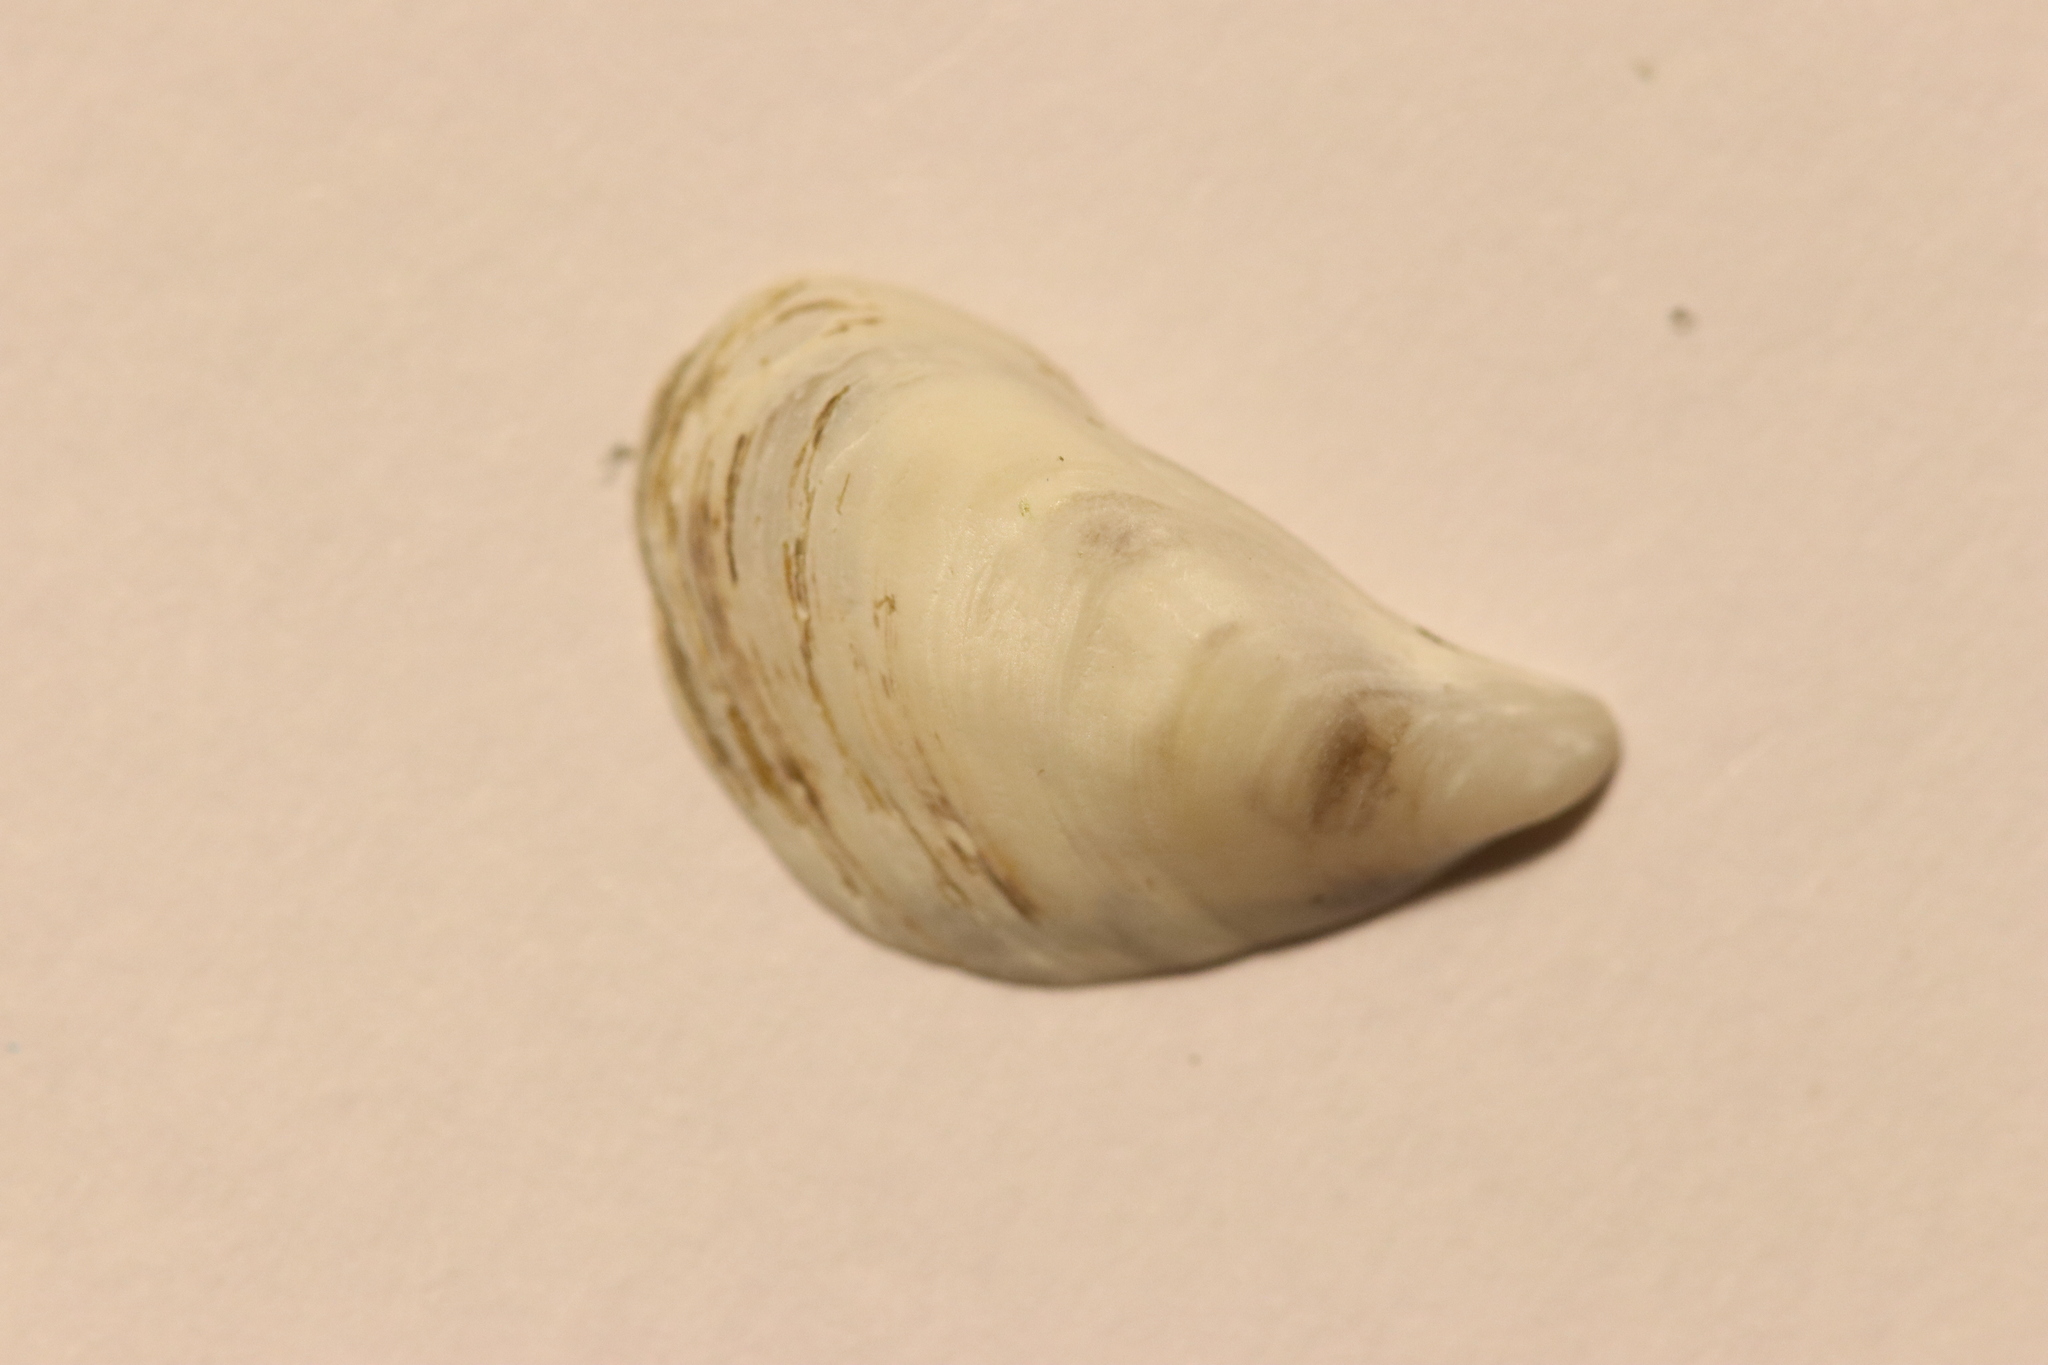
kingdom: Animalia
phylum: Mollusca
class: Bivalvia
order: Myida
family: Dreissenidae
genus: Dreissena
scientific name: Dreissena bugensis
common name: Quagga mussel
